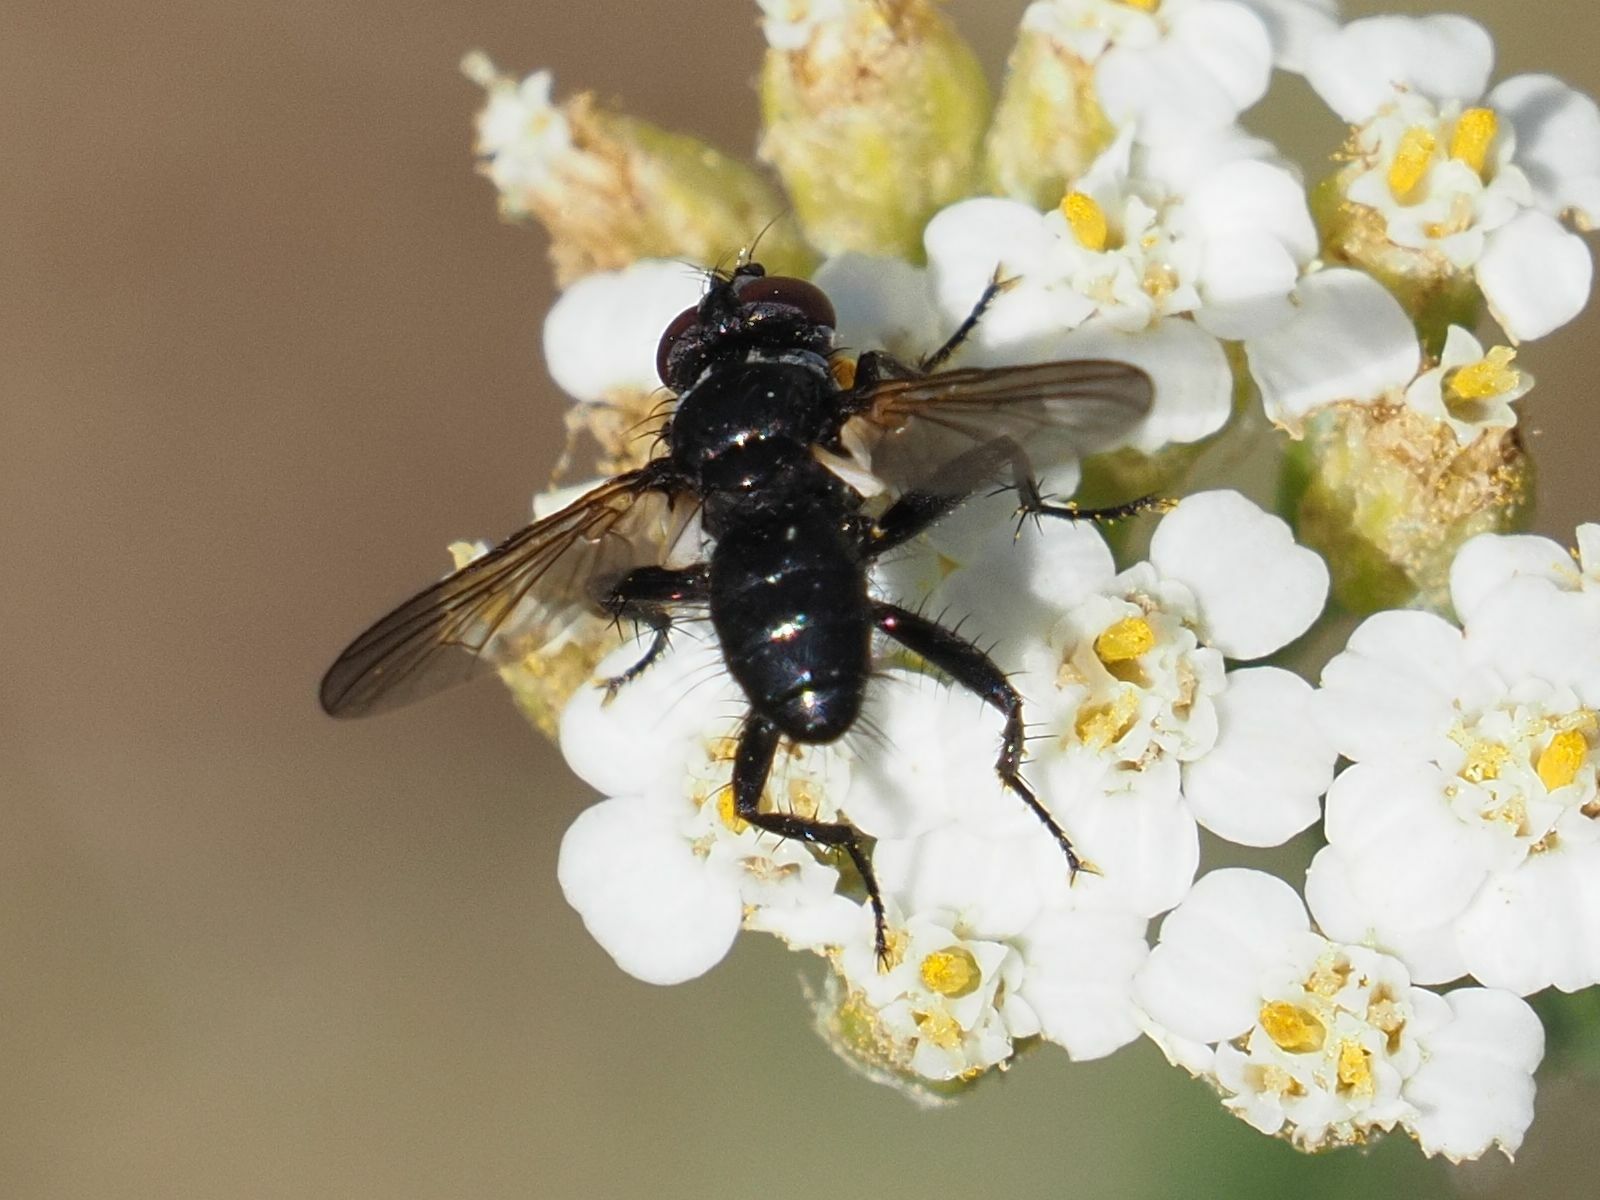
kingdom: Animalia
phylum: Arthropoda
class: Insecta
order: Diptera
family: Tachinidae
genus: Phania
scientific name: Phania funesta
